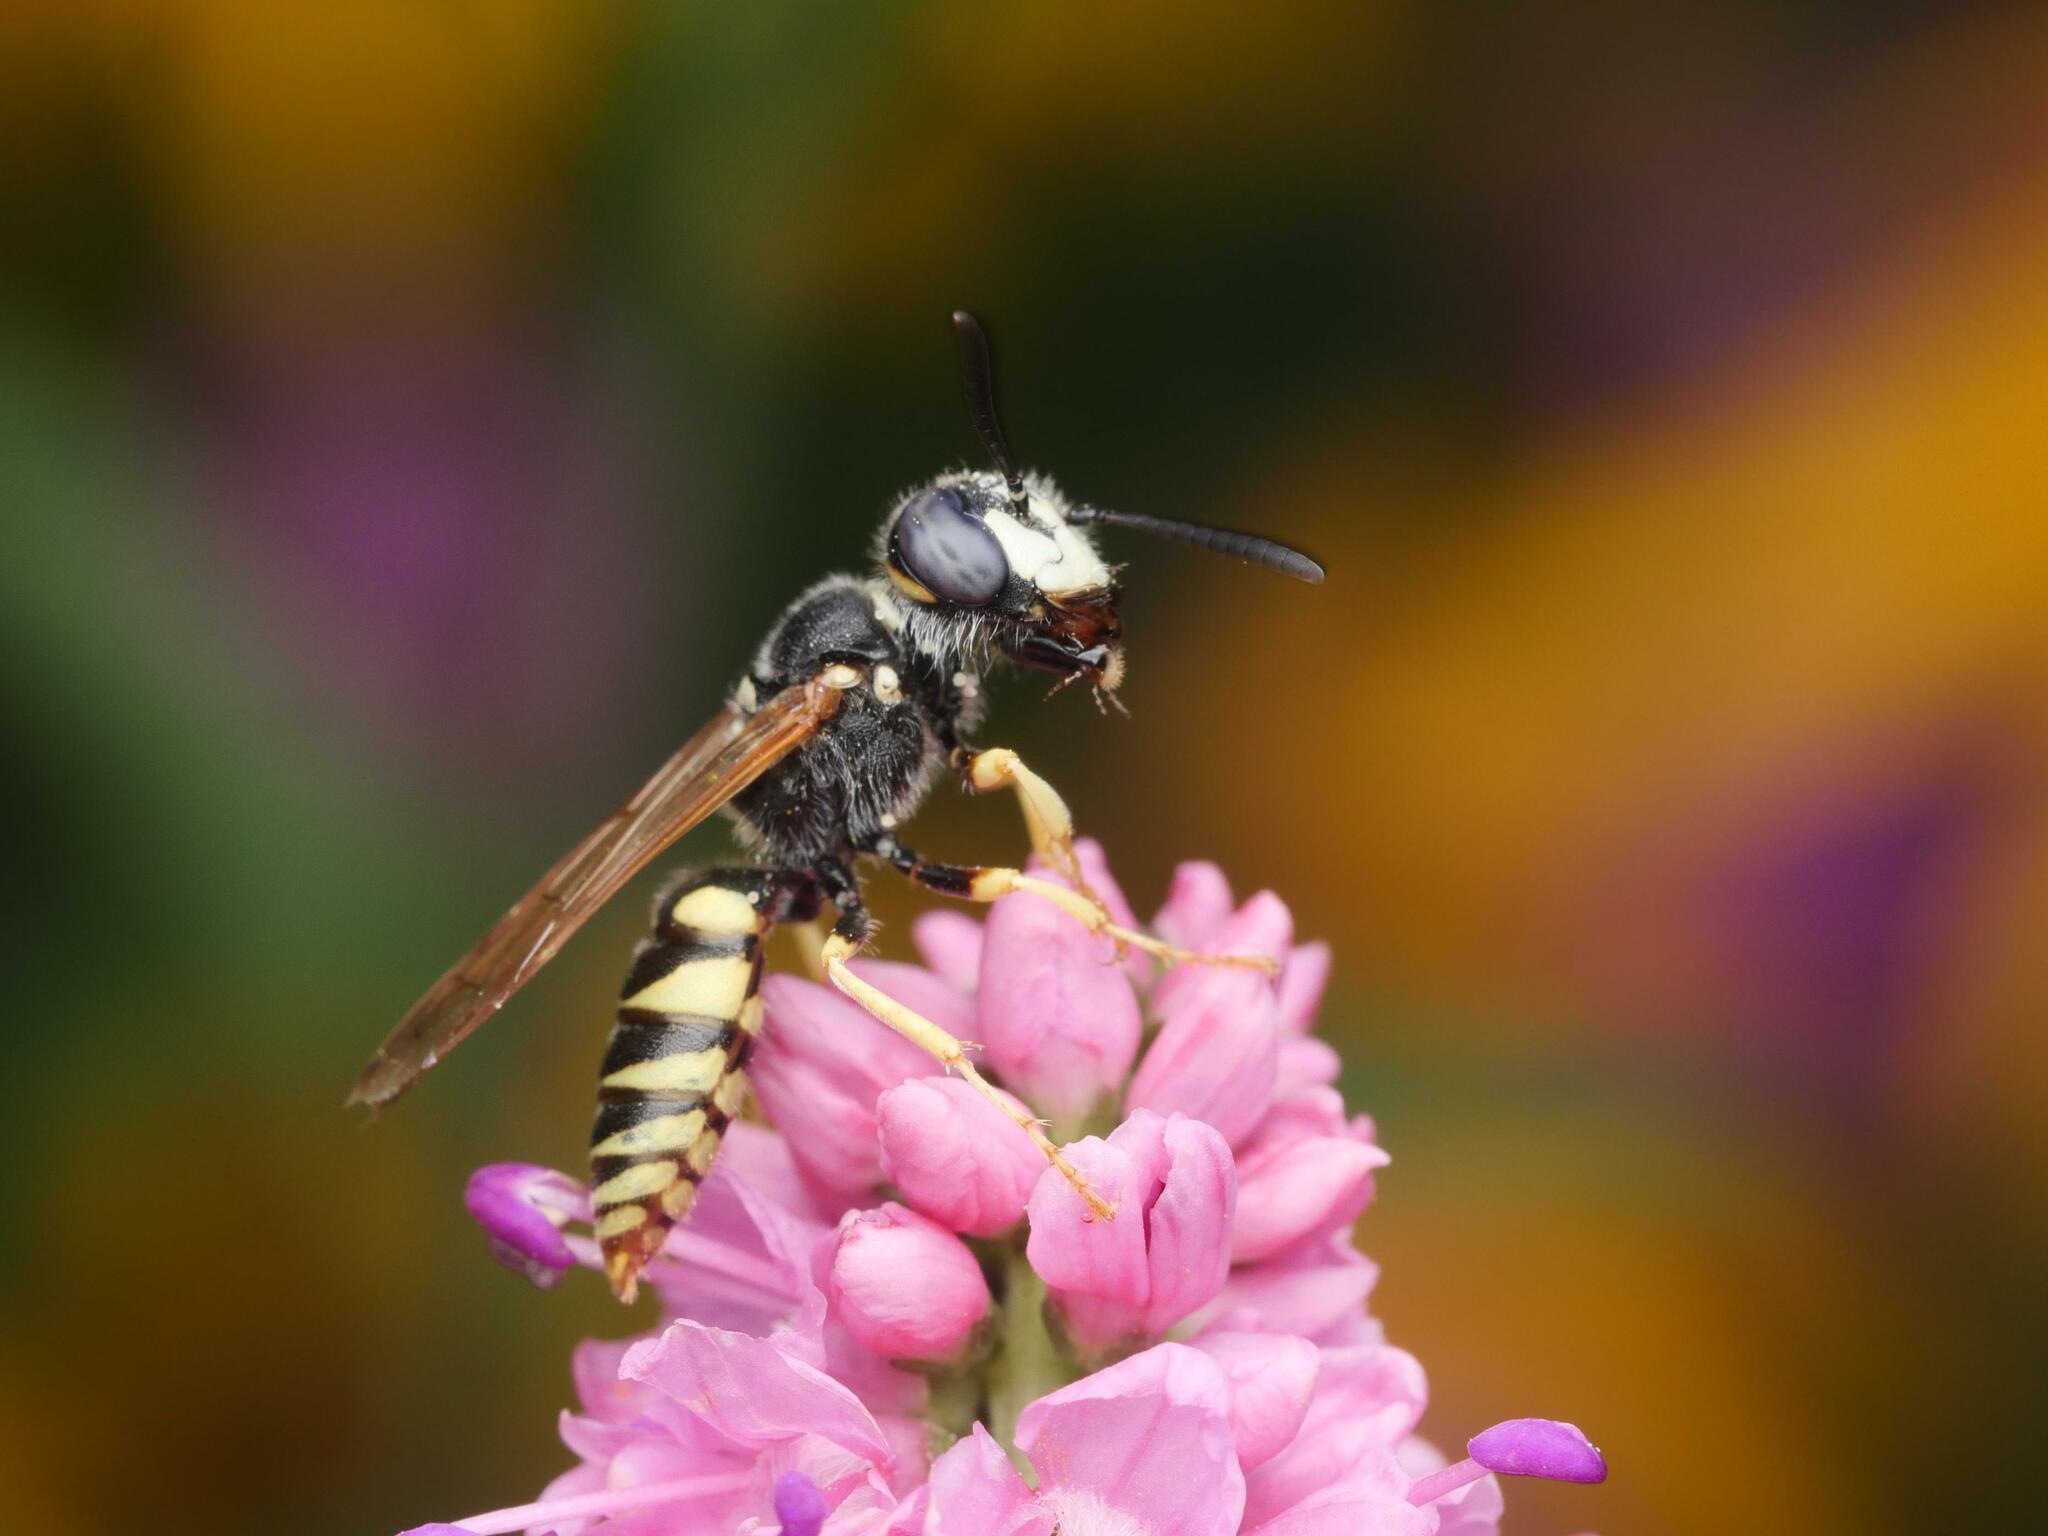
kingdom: Animalia
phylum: Arthropoda
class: Insecta
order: Hymenoptera
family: Crabronidae
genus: Philanthus
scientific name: Philanthus triangulum
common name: Bee wolf
